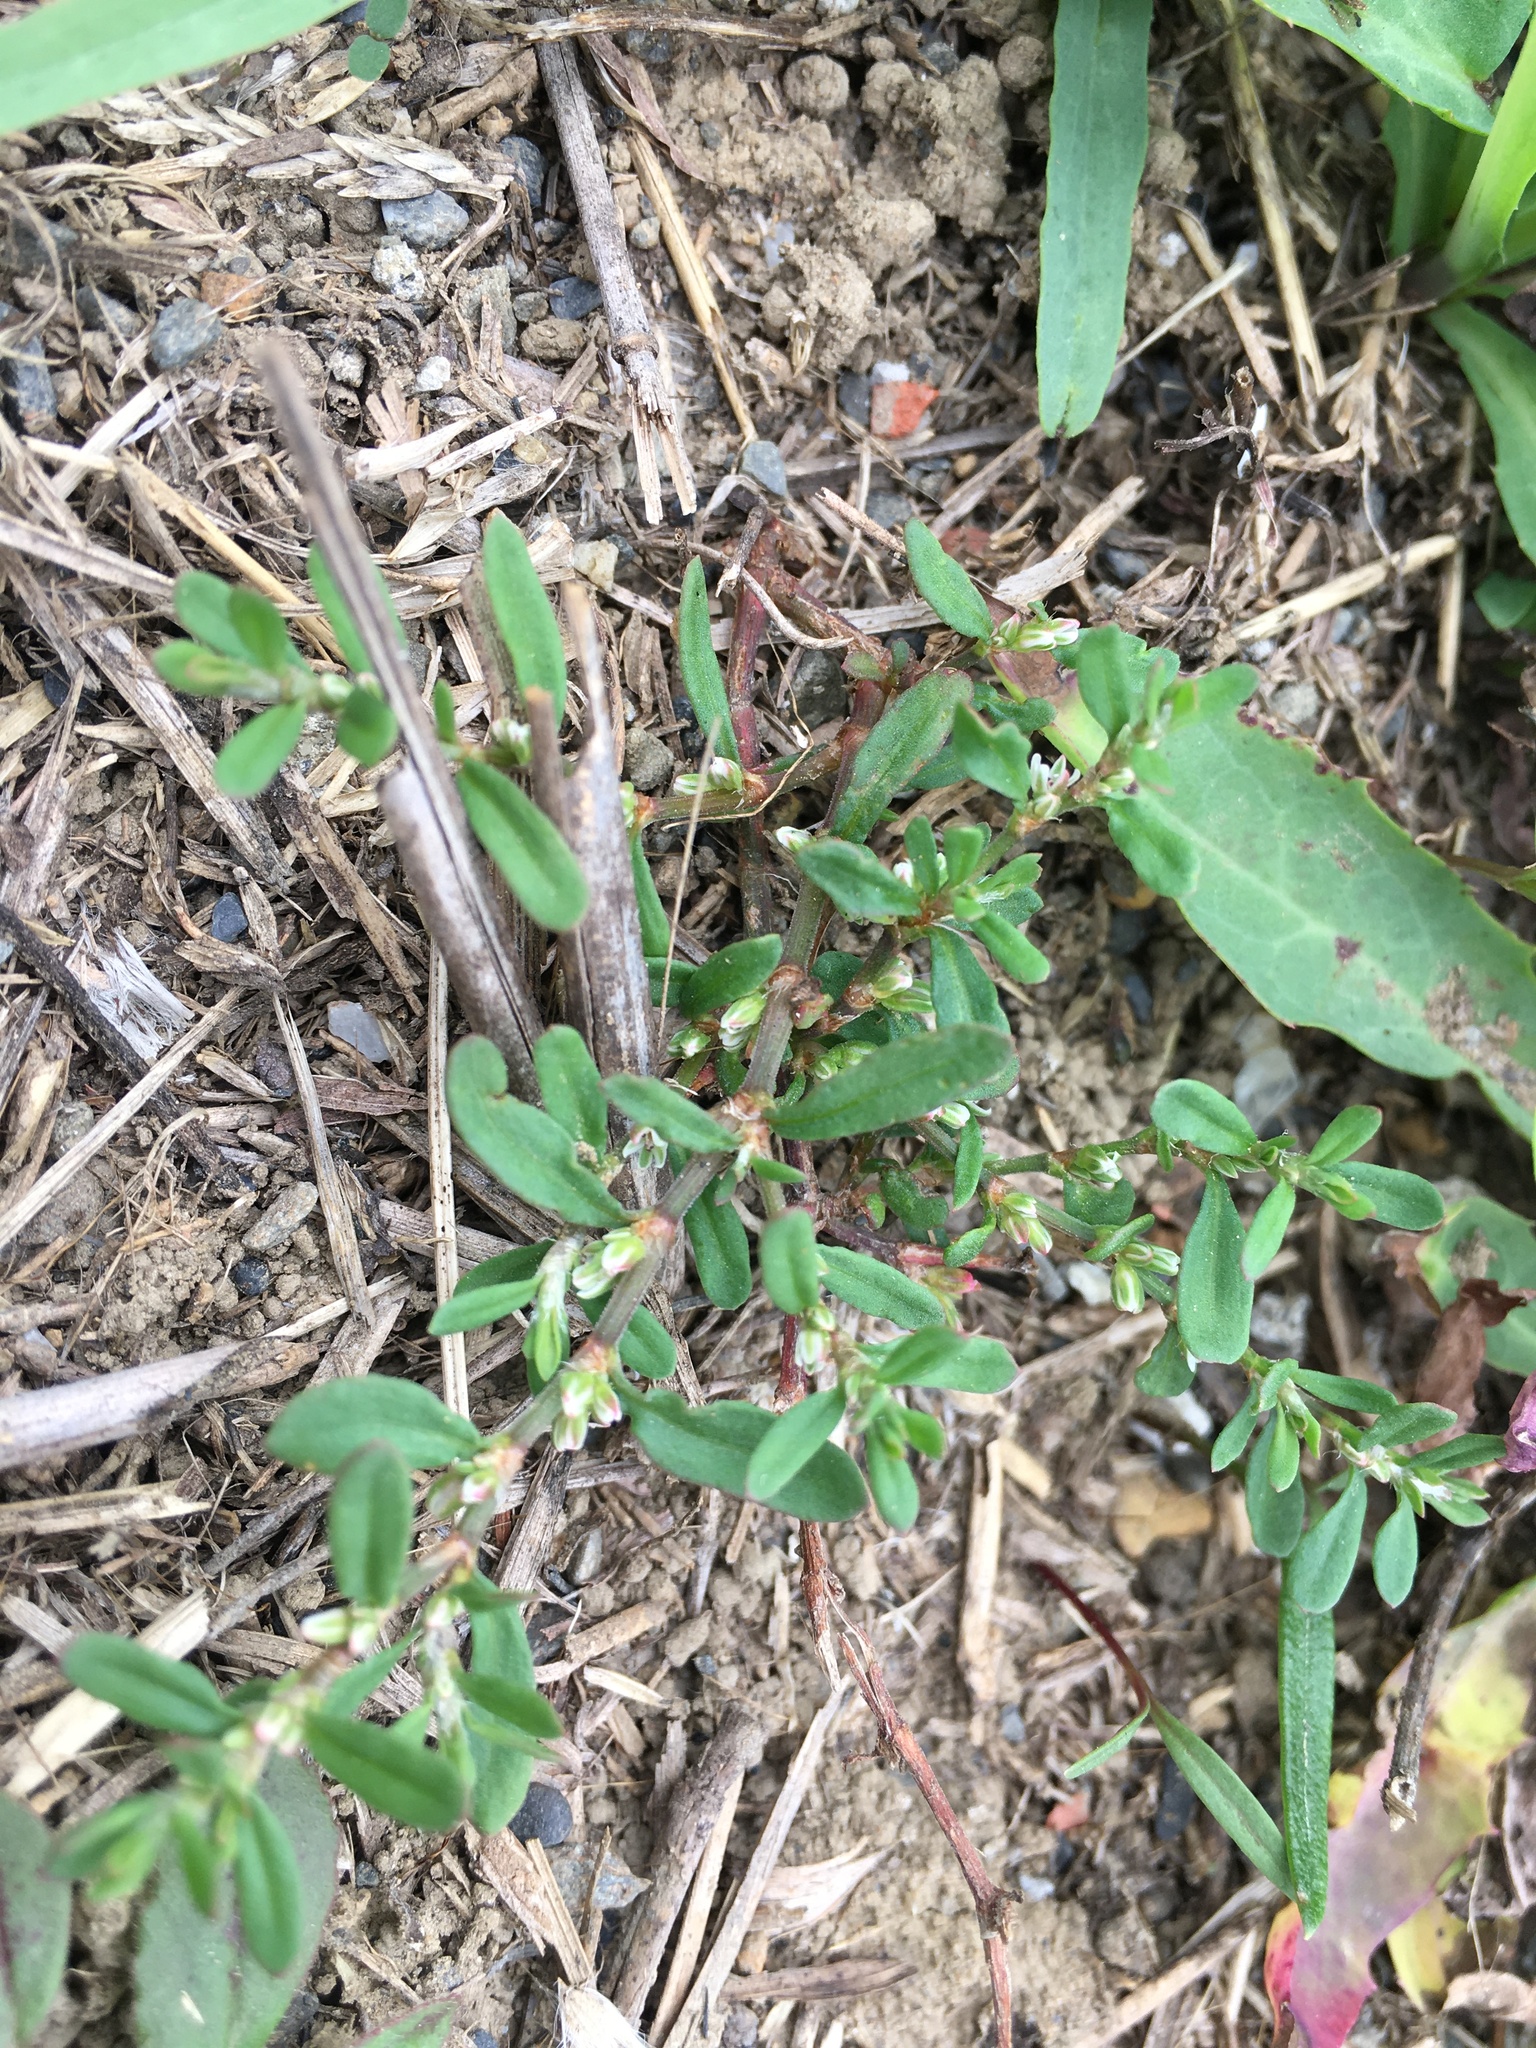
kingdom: Plantae
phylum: Tracheophyta
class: Magnoliopsida
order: Caryophyllales
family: Polygonaceae
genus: Polygonum
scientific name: Polygonum plebeium
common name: Common knotweed
